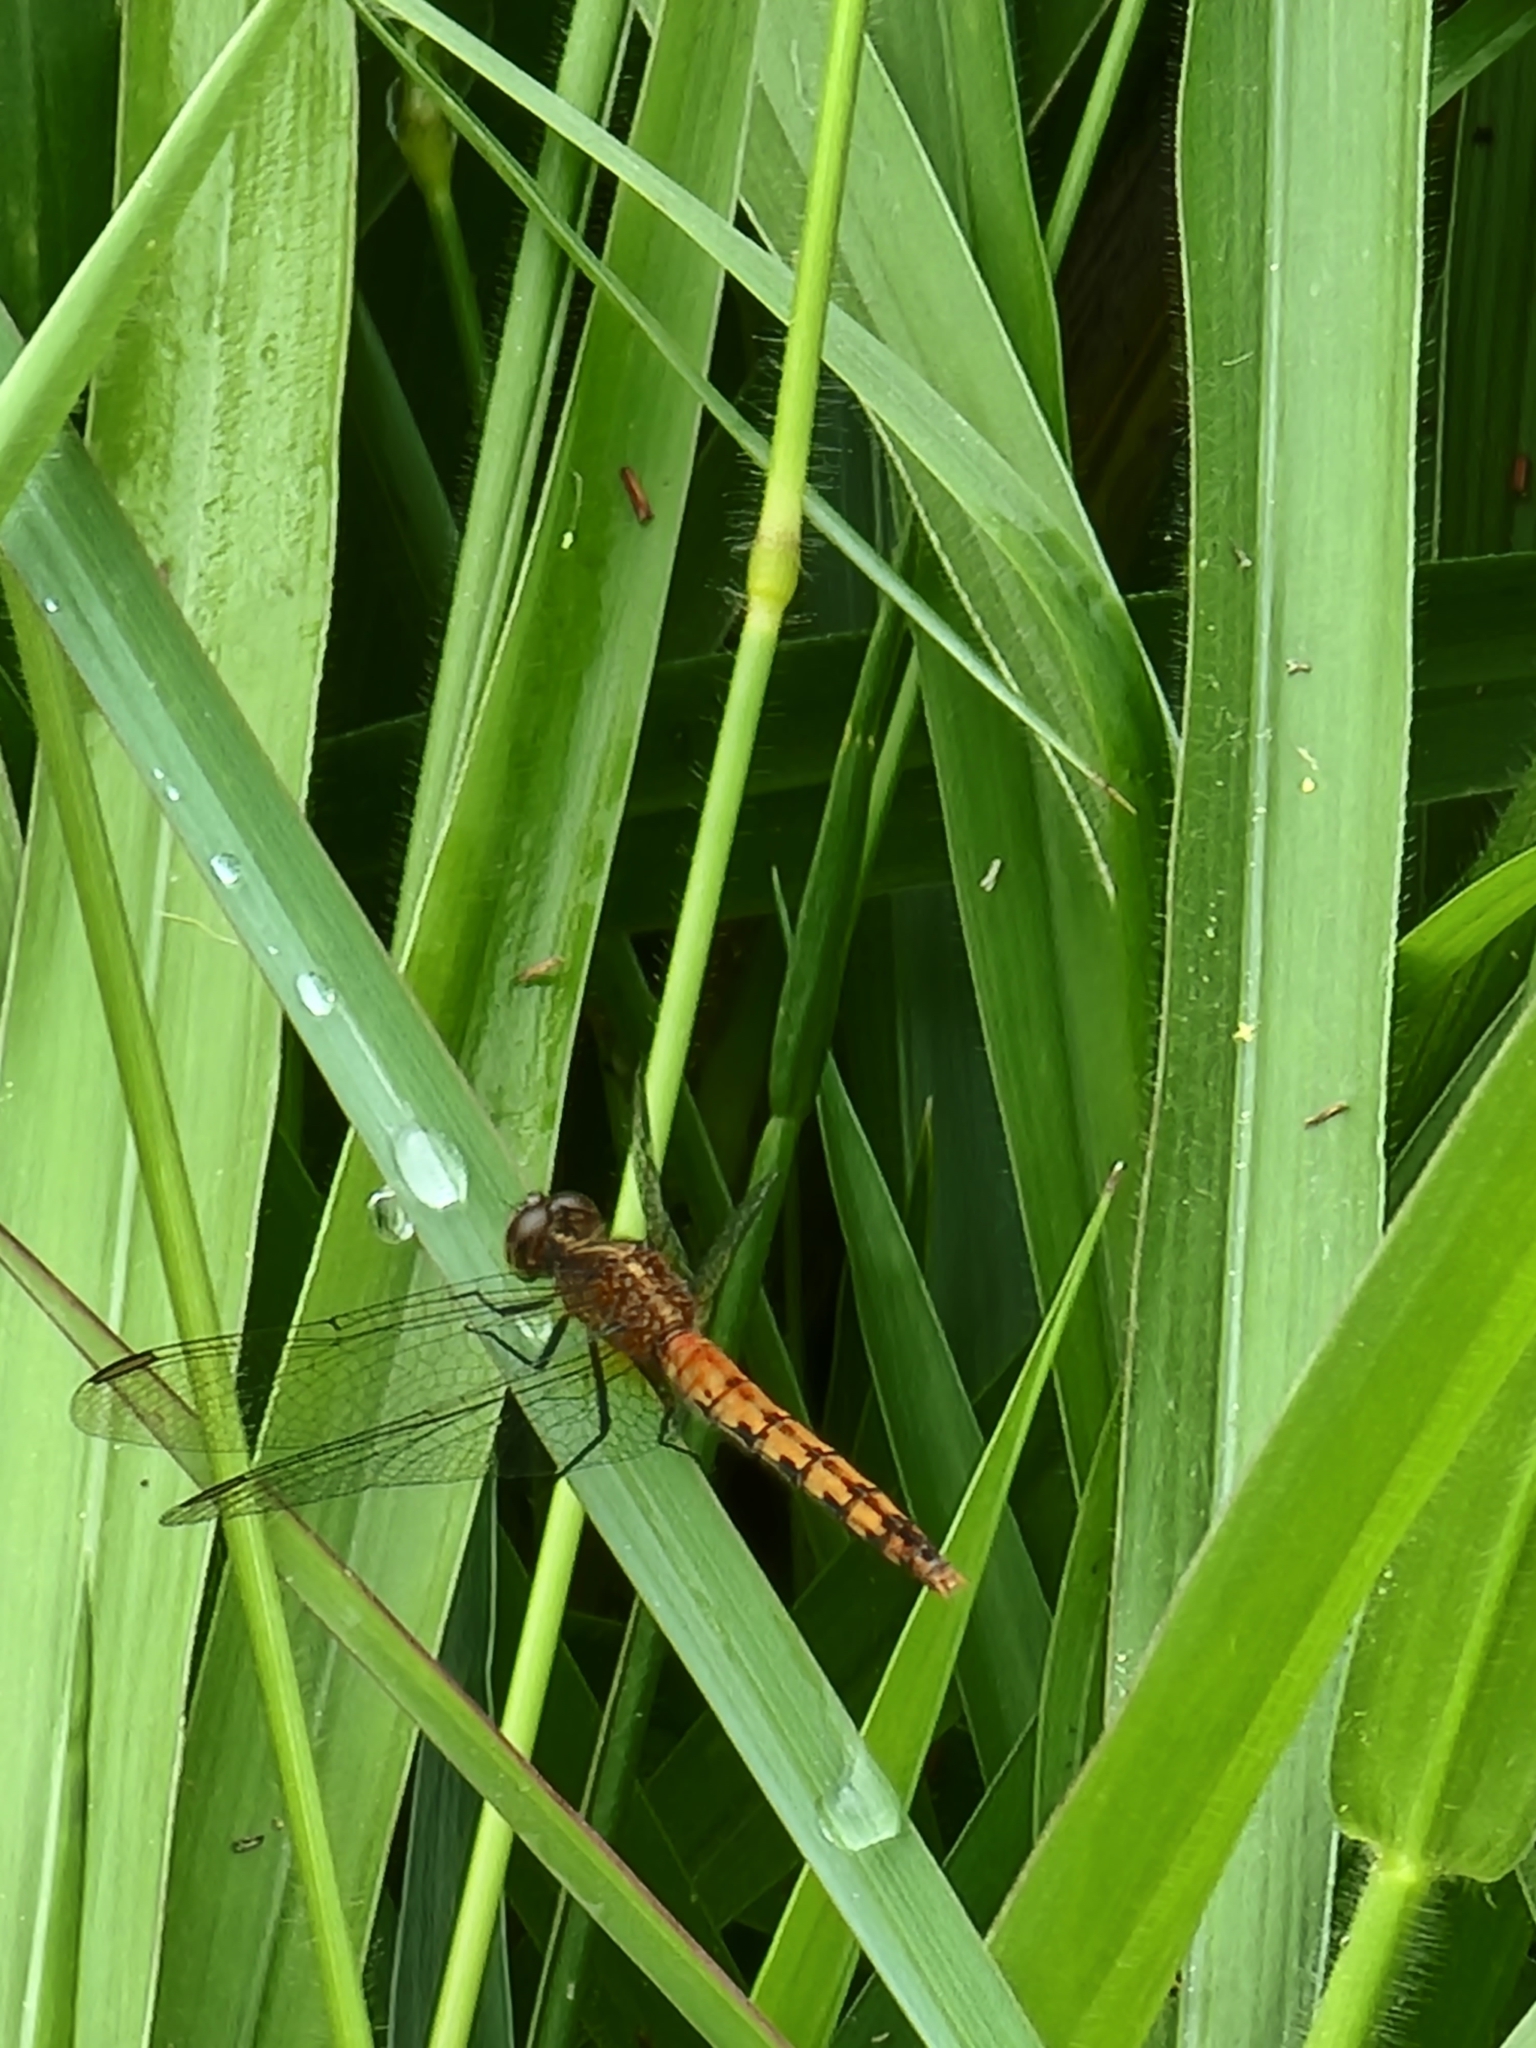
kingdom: Animalia
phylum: Arthropoda
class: Insecta
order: Odonata
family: Libellulidae
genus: Diplacodes
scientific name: Diplacodes melanopsis
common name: Black-faced percher
